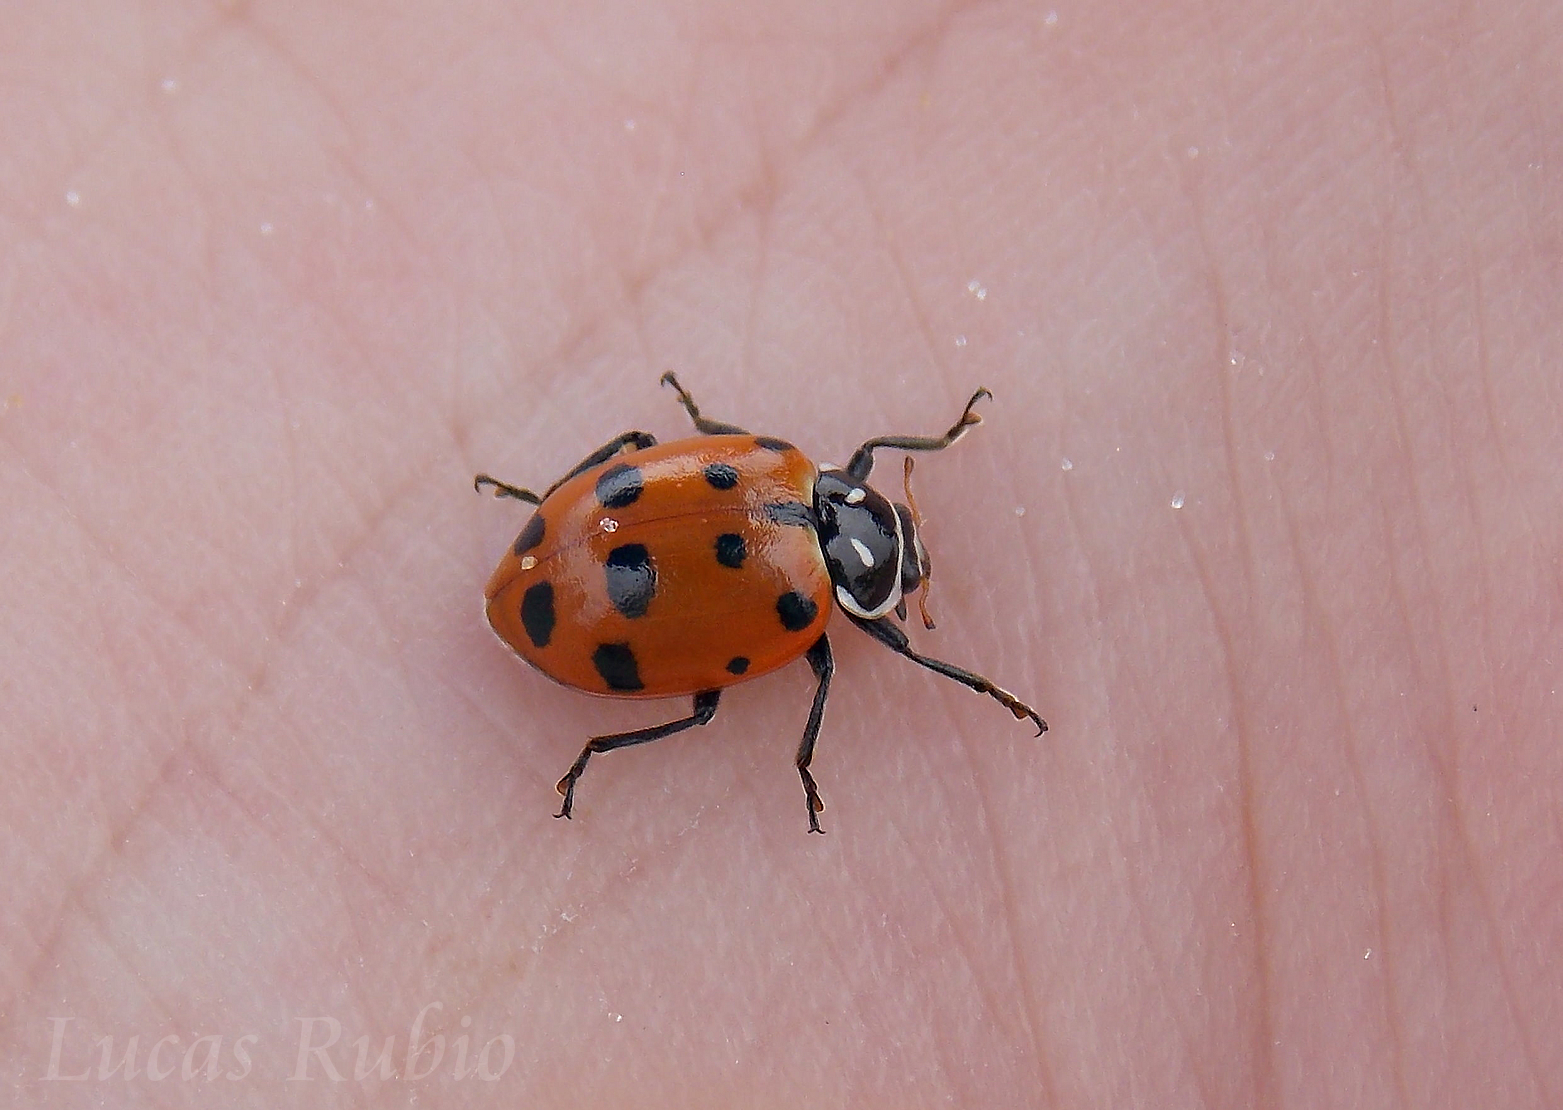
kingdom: Animalia
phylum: Arthropoda
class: Insecta
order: Coleoptera
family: Coccinellidae
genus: Hippodamia
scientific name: Hippodamia convergens
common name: Convergent lady beetle
